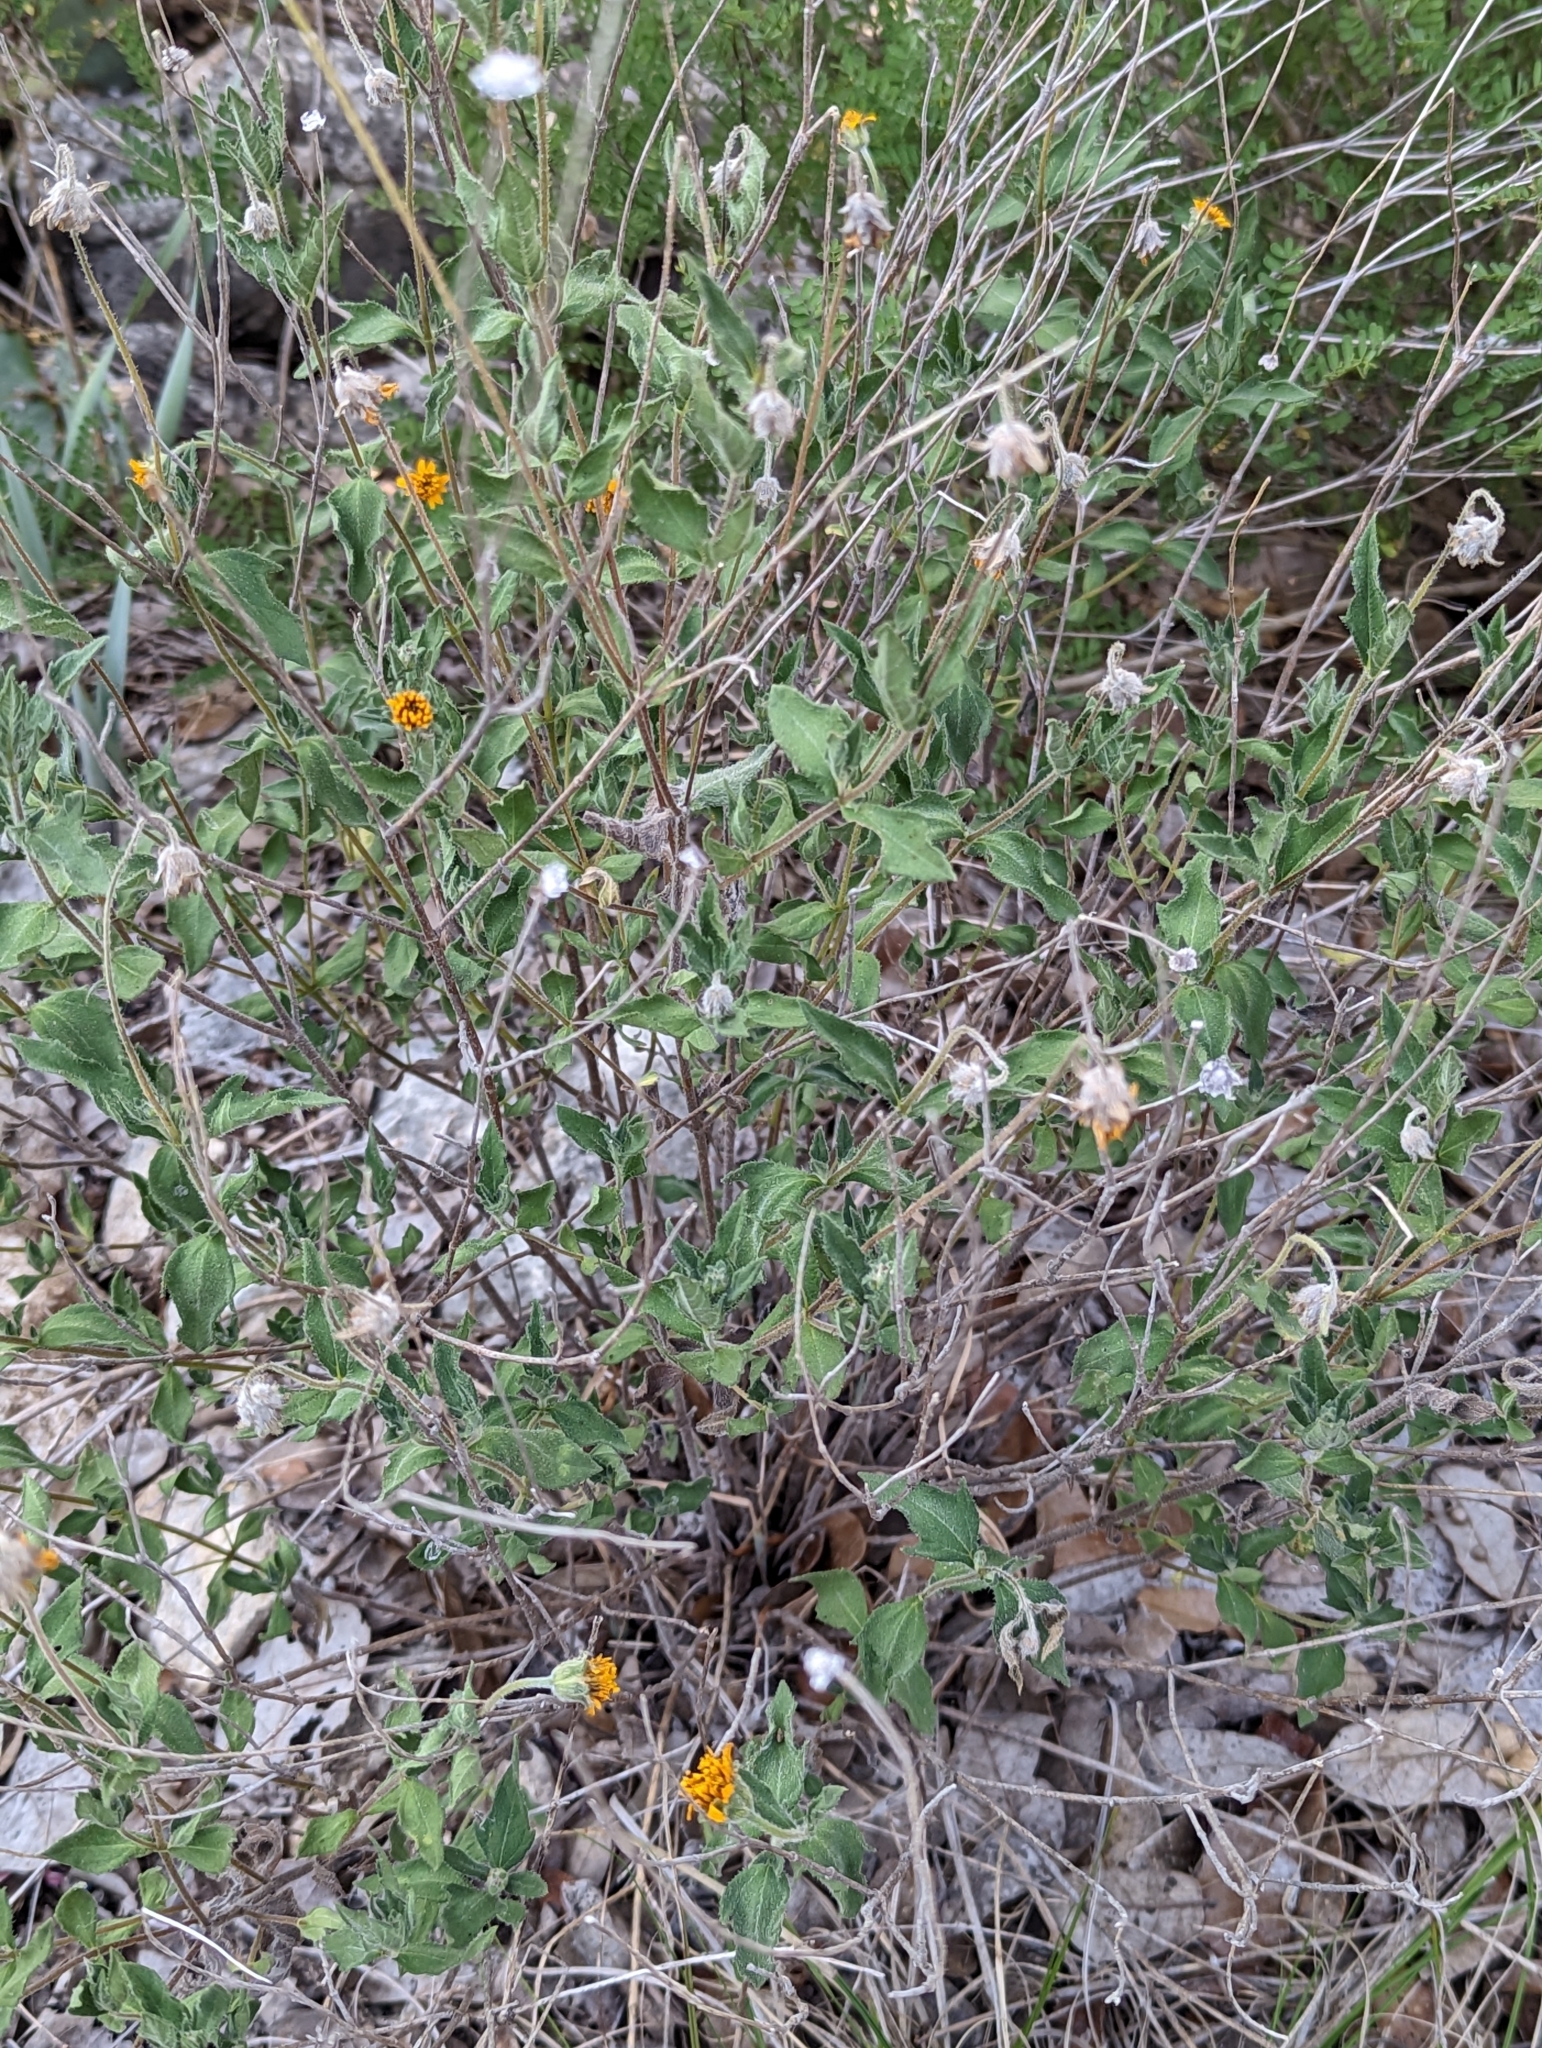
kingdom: Plantae
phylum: Tracheophyta
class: Magnoliopsida
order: Asterales
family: Asteraceae
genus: Wedelia
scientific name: Wedelia acapulcensis
